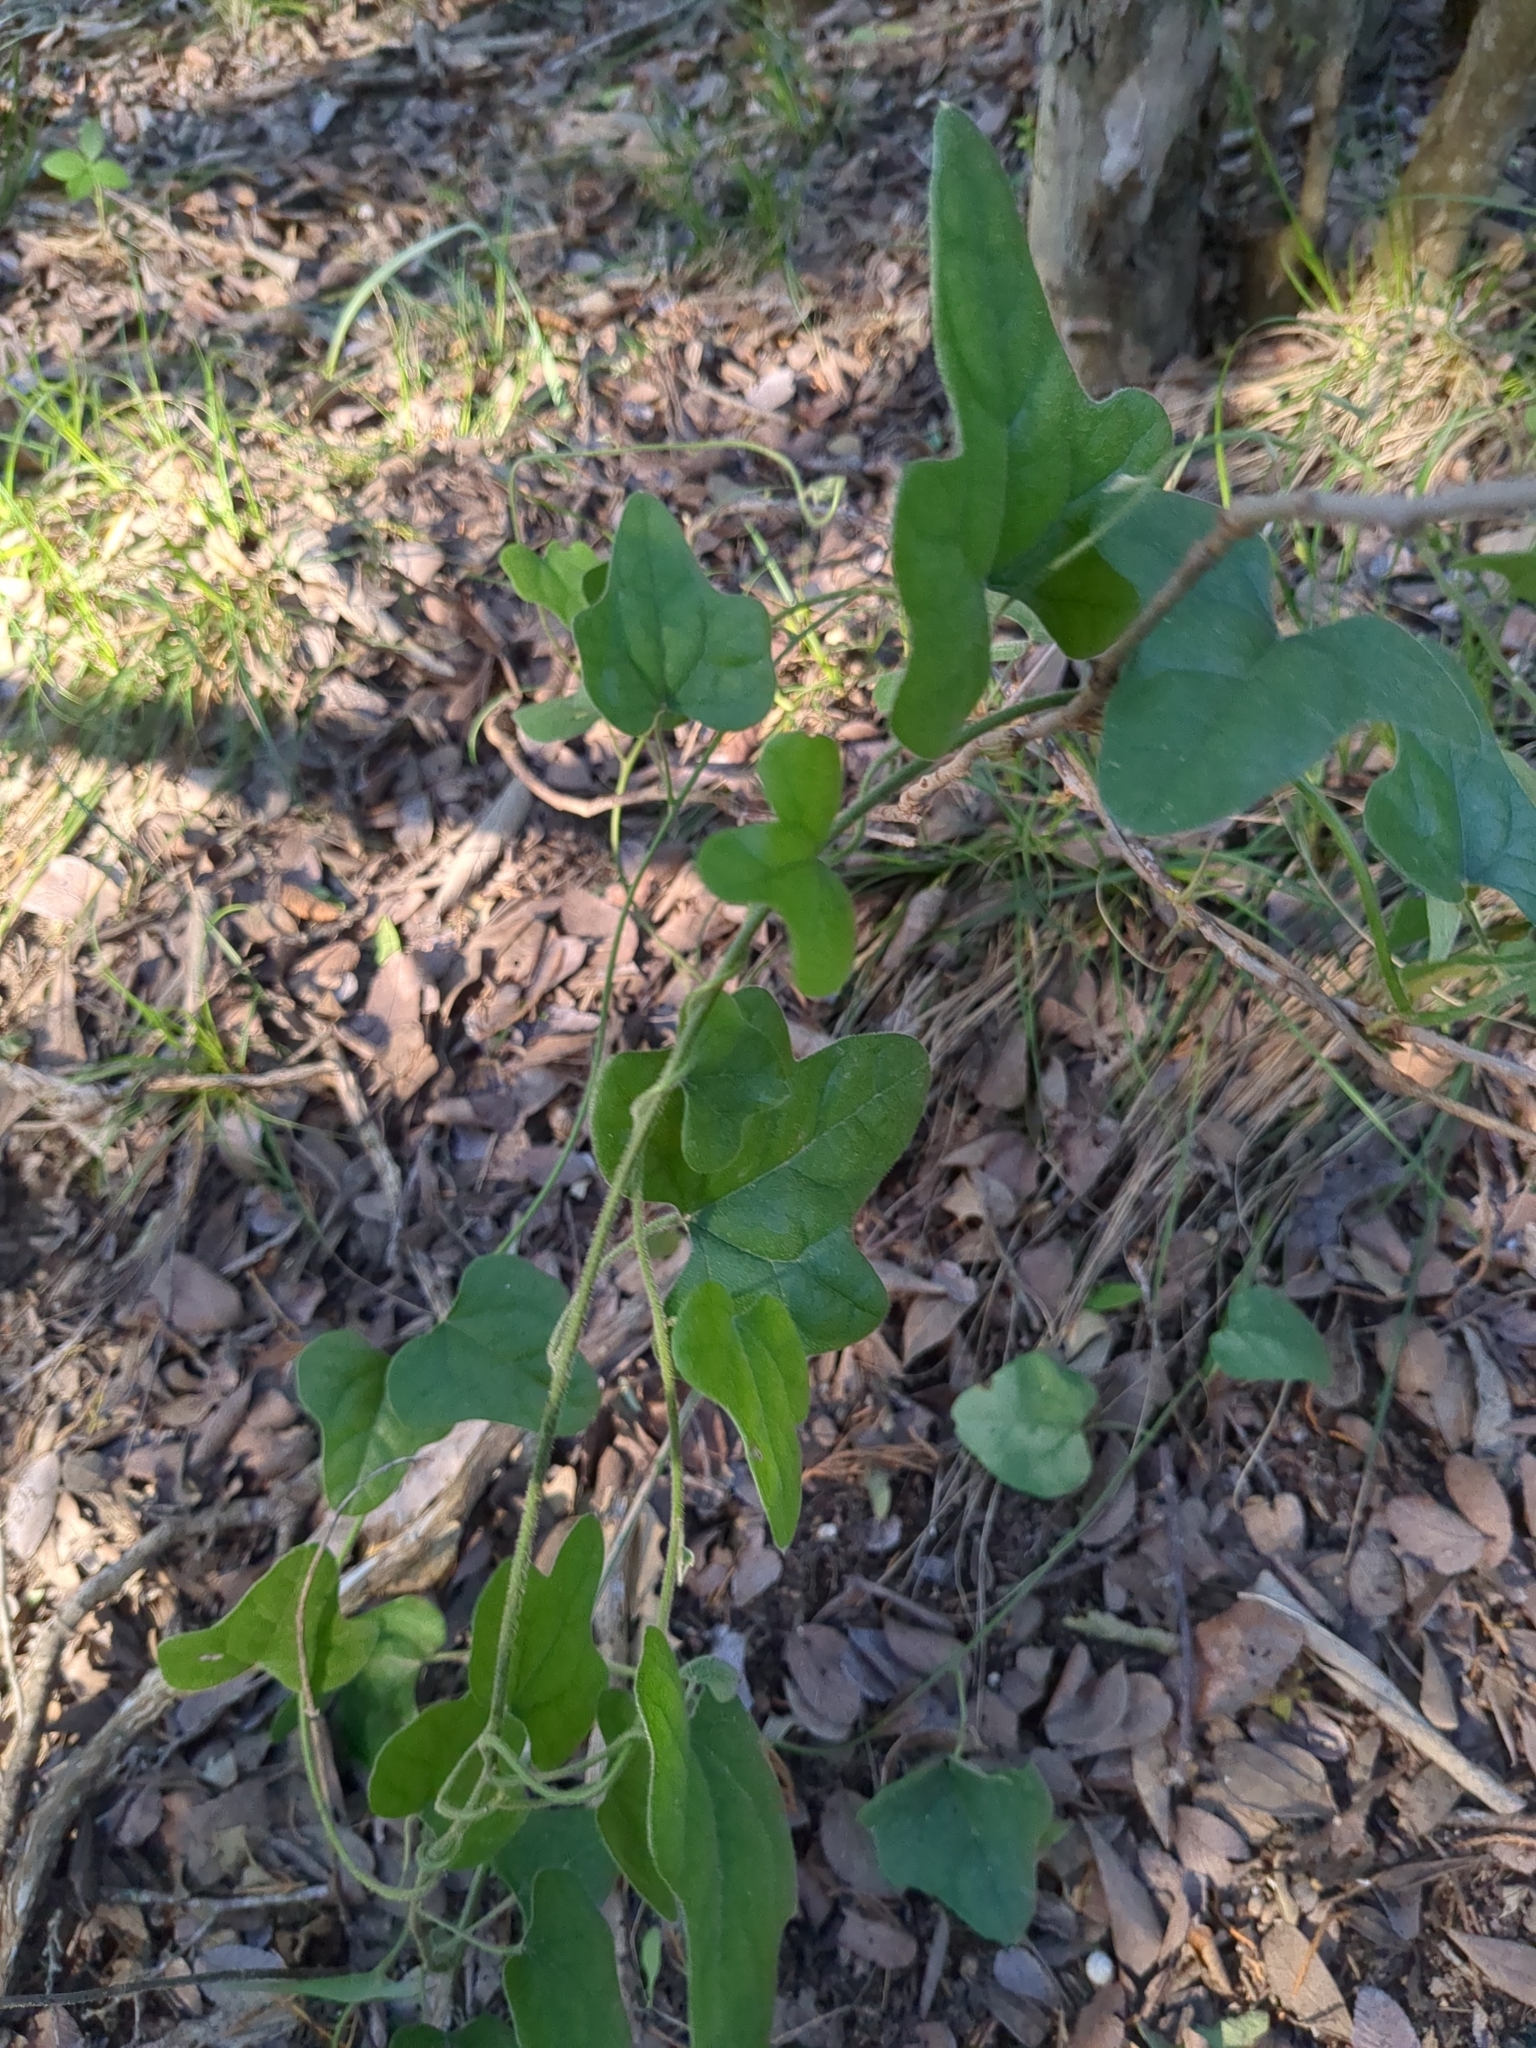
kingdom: Plantae
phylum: Tracheophyta
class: Magnoliopsida
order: Ranunculales
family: Menispermaceae
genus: Cocculus
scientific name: Cocculus carolinus
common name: Carolina moonseed
